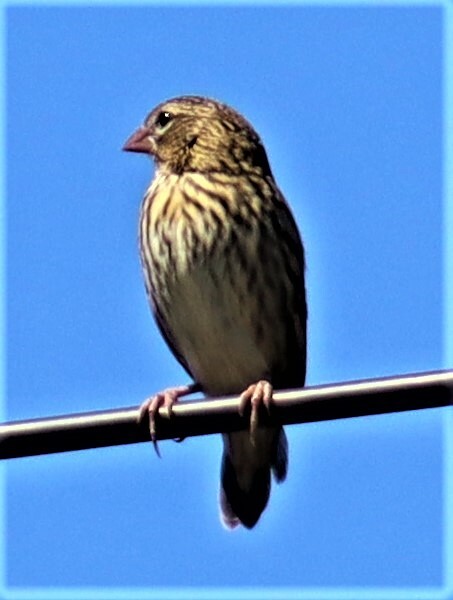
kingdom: Animalia
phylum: Chordata
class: Aves
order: Passeriformes
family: Ploceidae
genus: Euplectes
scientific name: Euplectes capensis
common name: Yellow bishop
